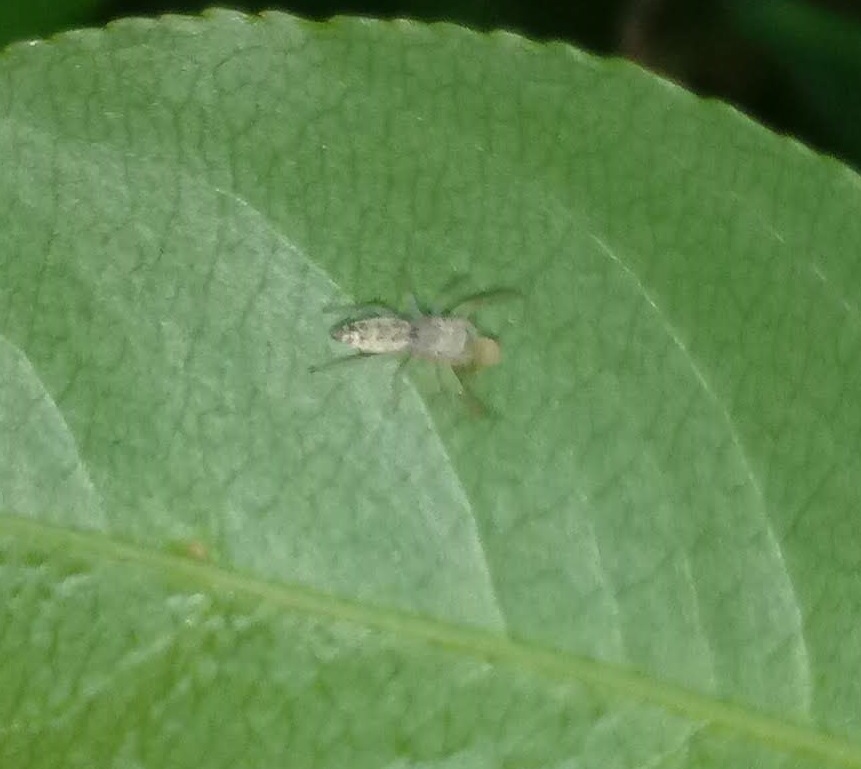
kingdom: Animalia
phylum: Arthropoda
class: Arachnida
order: Araneae
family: Salticidae
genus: Hentzia
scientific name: Hentzia palmarum
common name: Common hentz jumping spider
